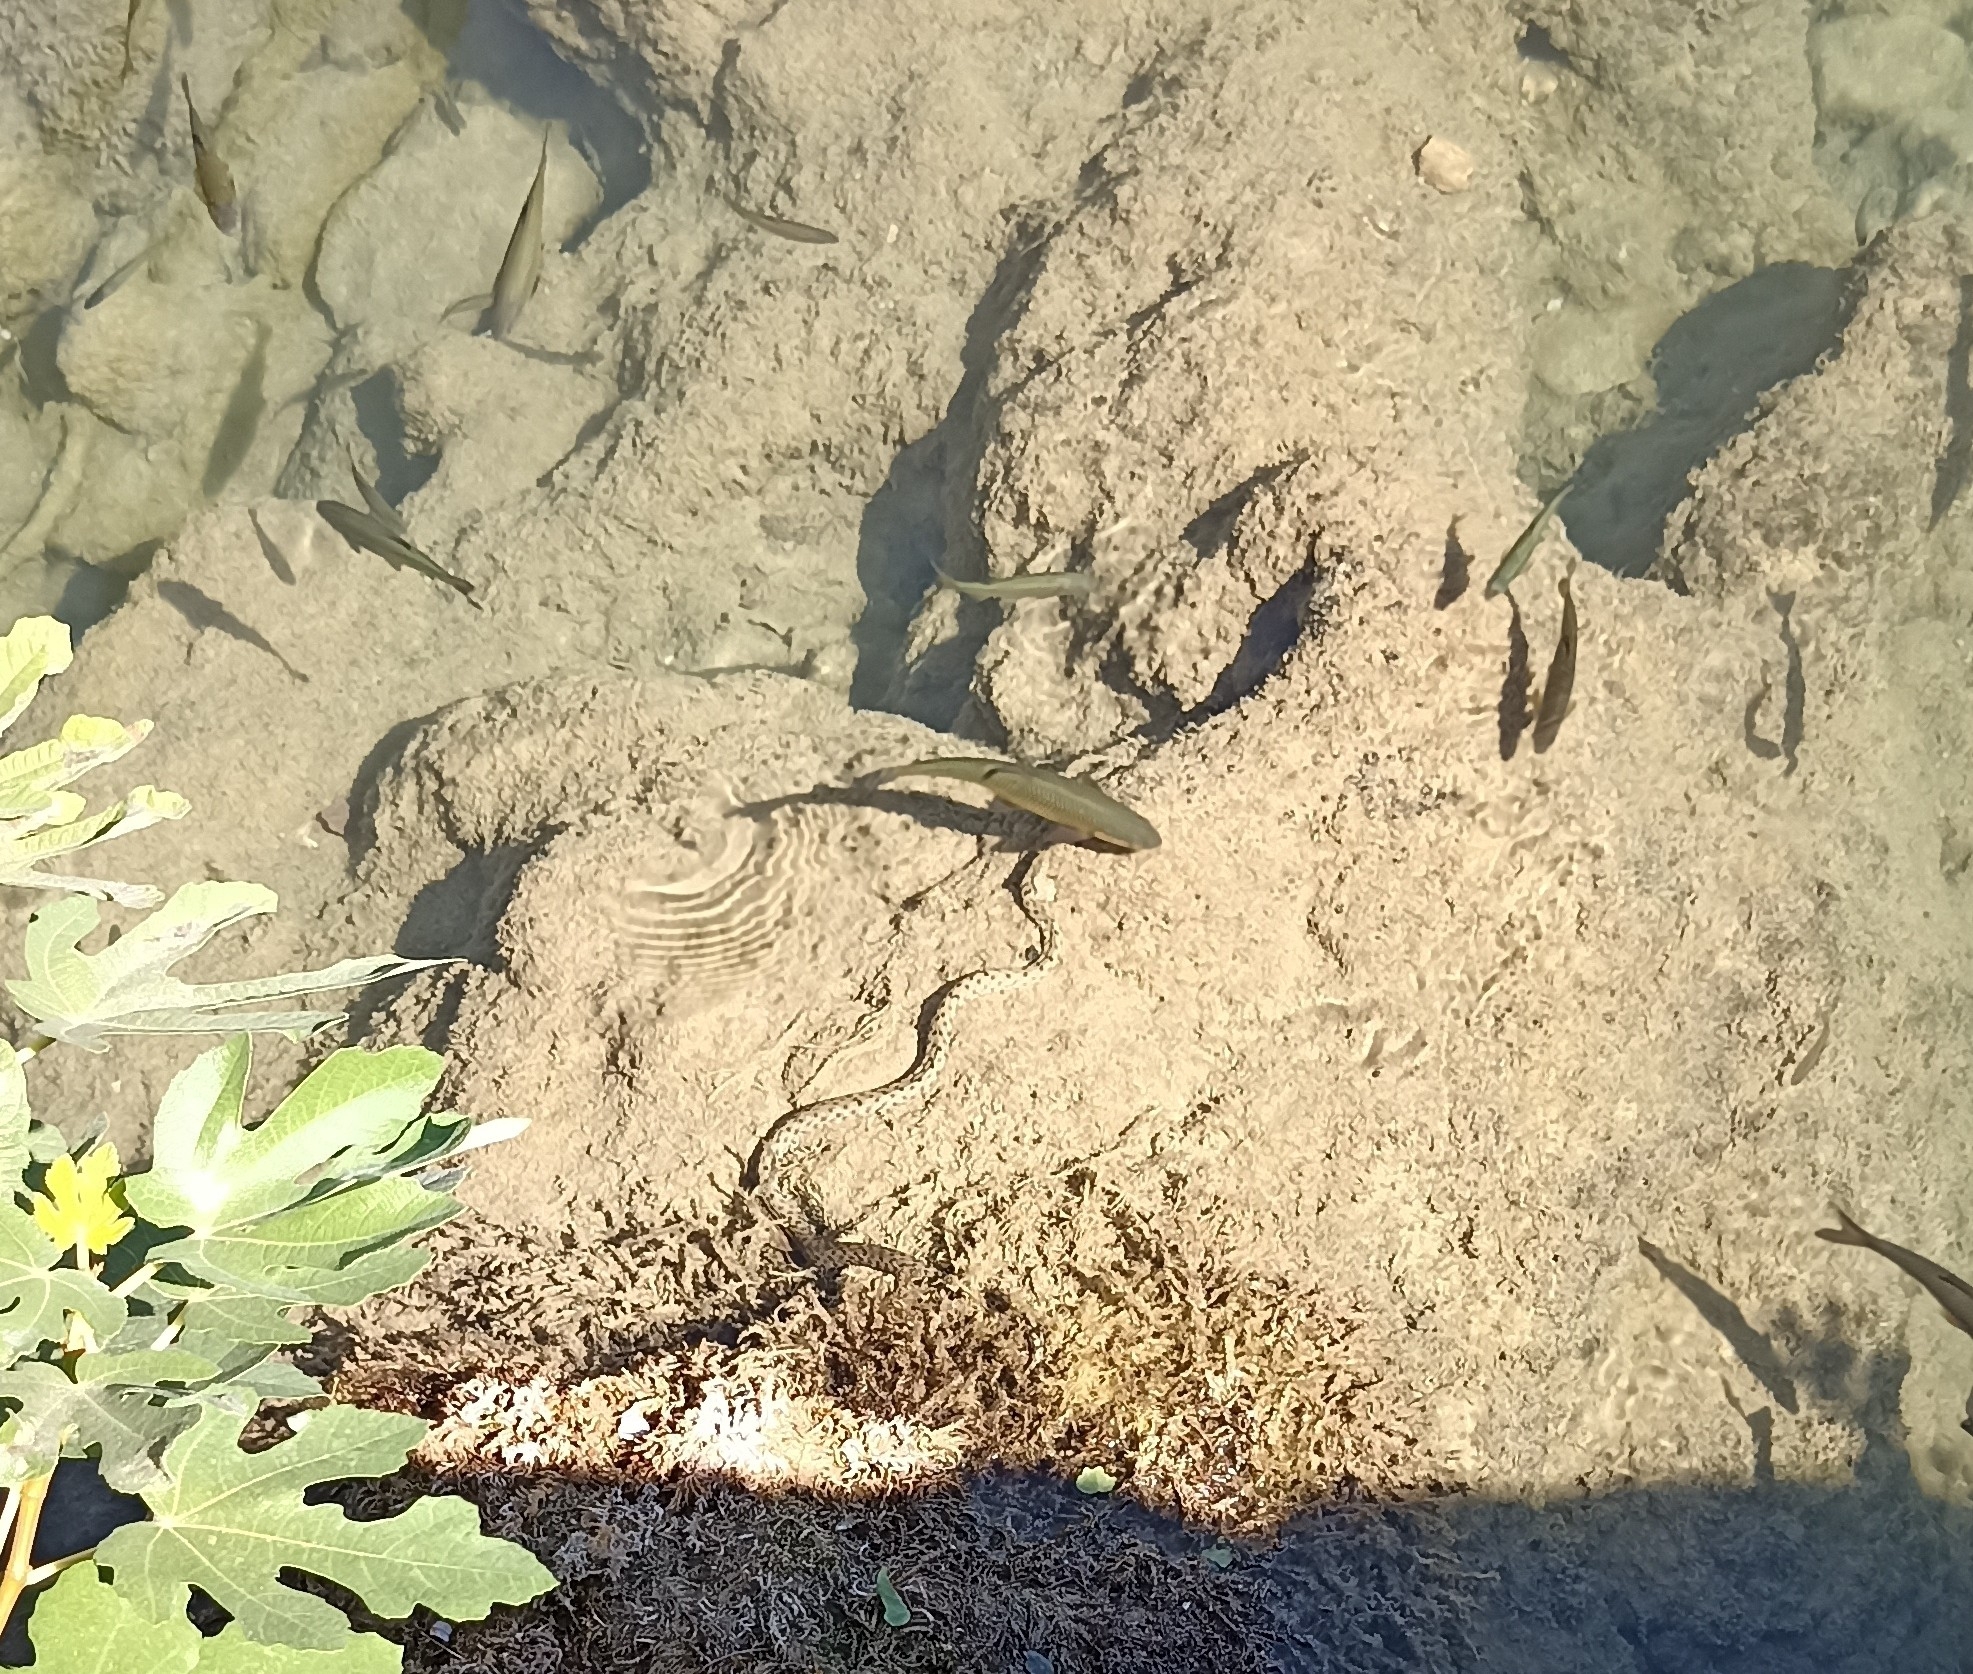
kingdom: Animalia
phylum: Chordata
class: Squamata
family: Colubridae
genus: Natrix
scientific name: Natrix tessellata
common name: Dice snake
